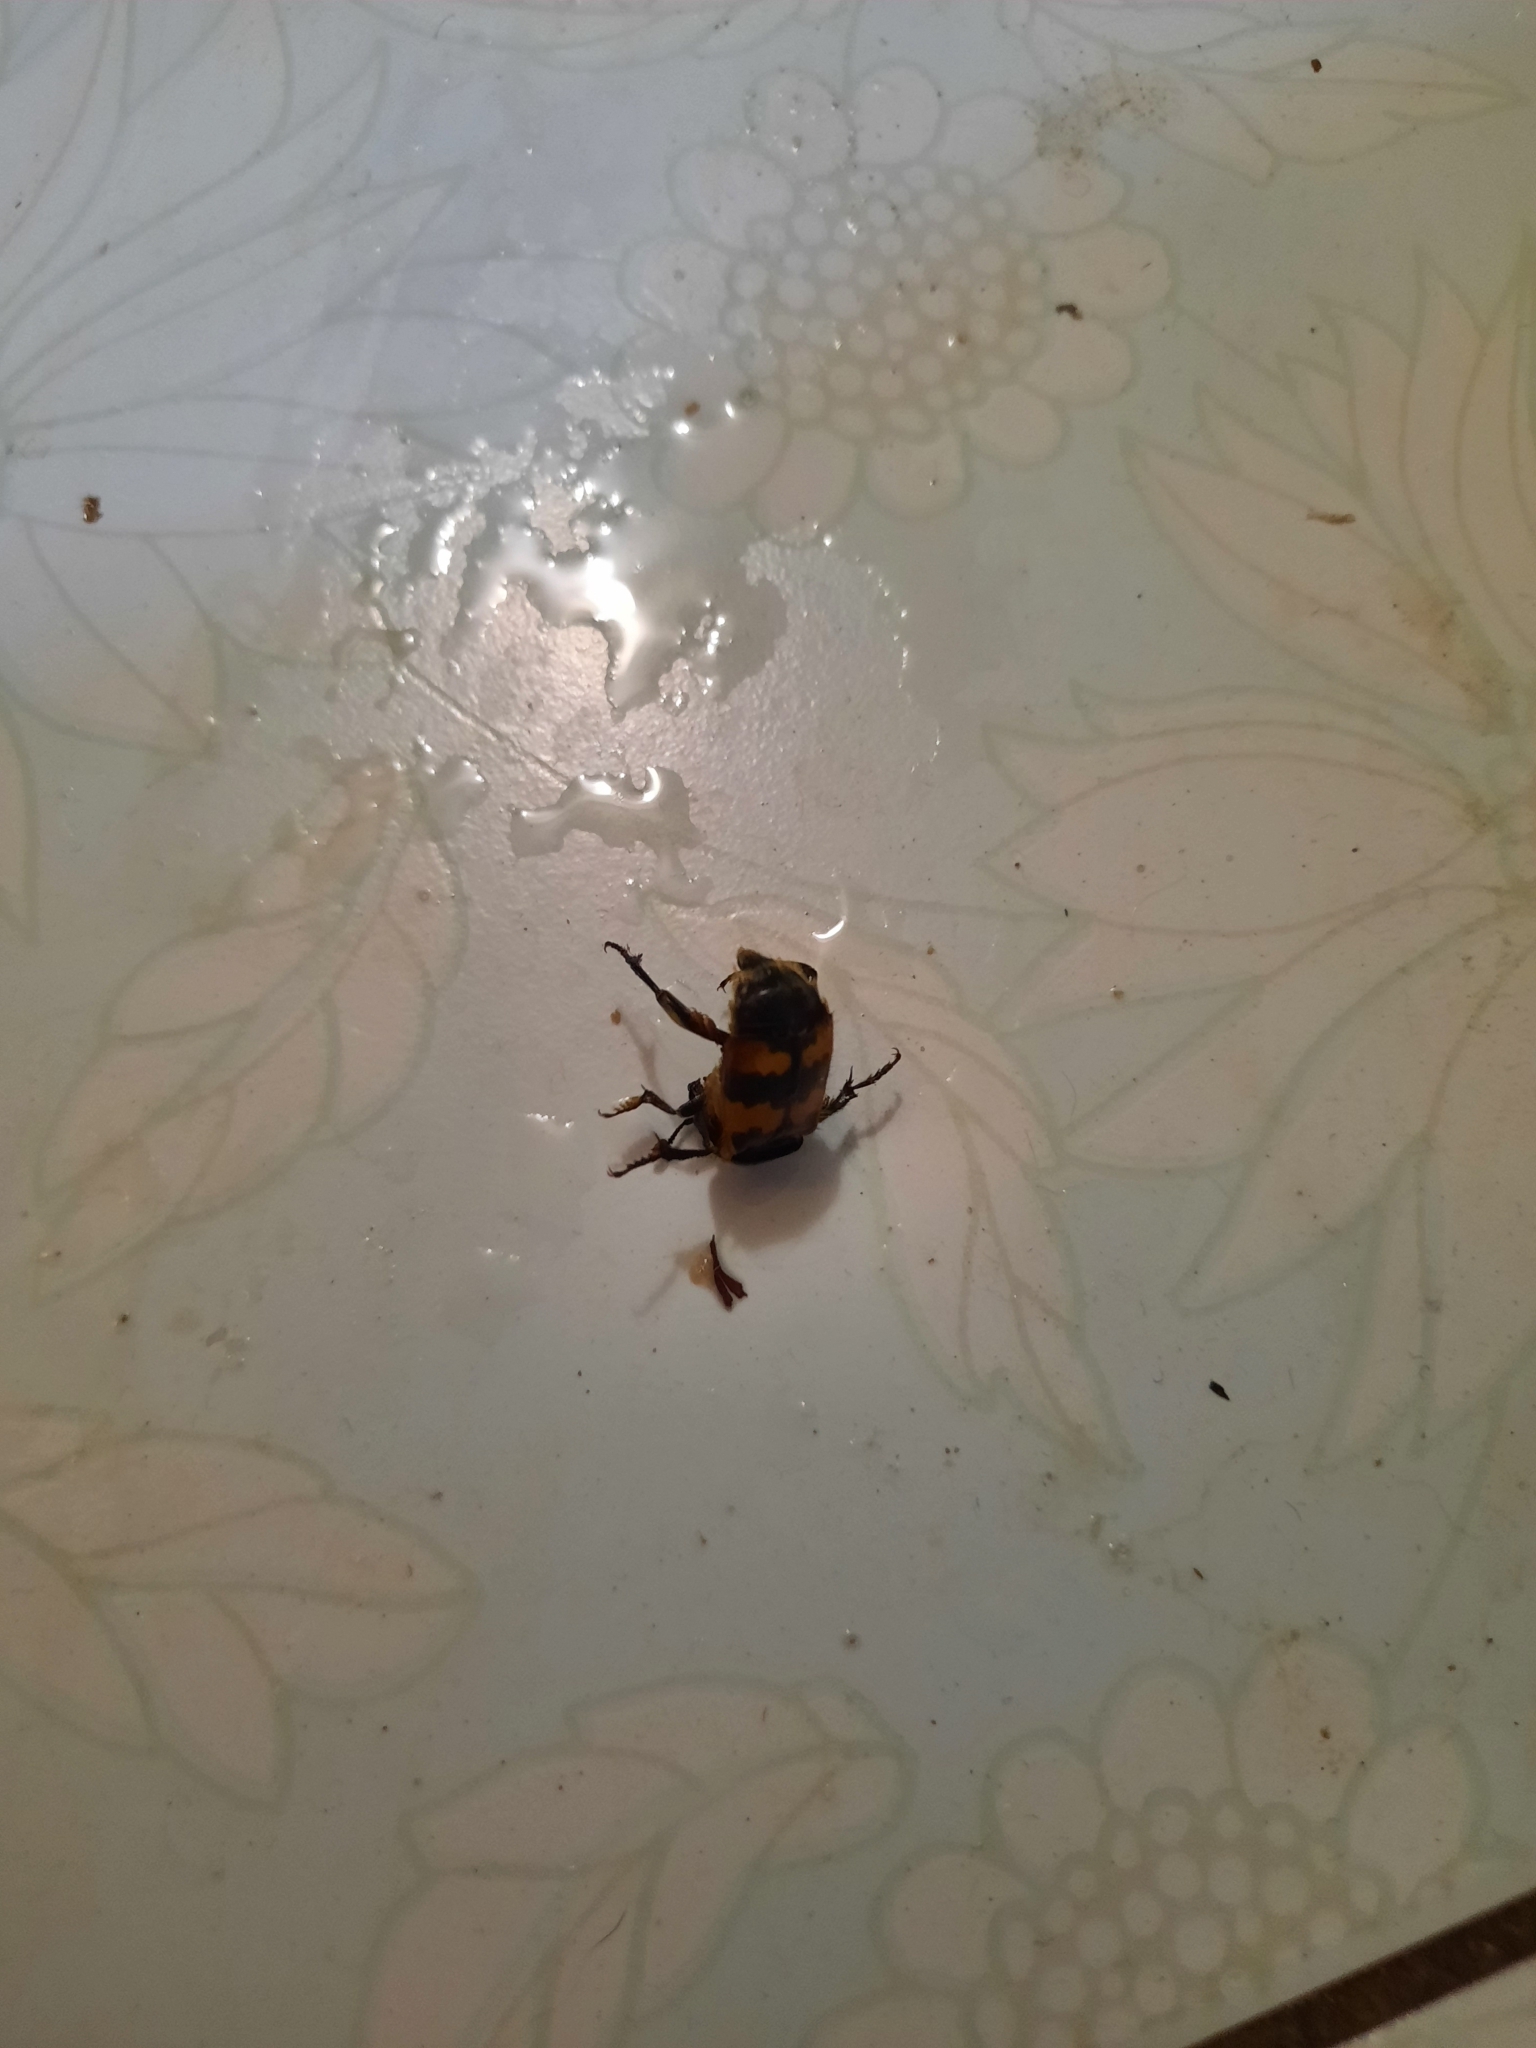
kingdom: Animalia
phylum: Arthropoda
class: Insecta
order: Coleoptera
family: Staphylinidae
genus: Nicrophorus
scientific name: Nicrophorus vespillo
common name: Common burying beetle
